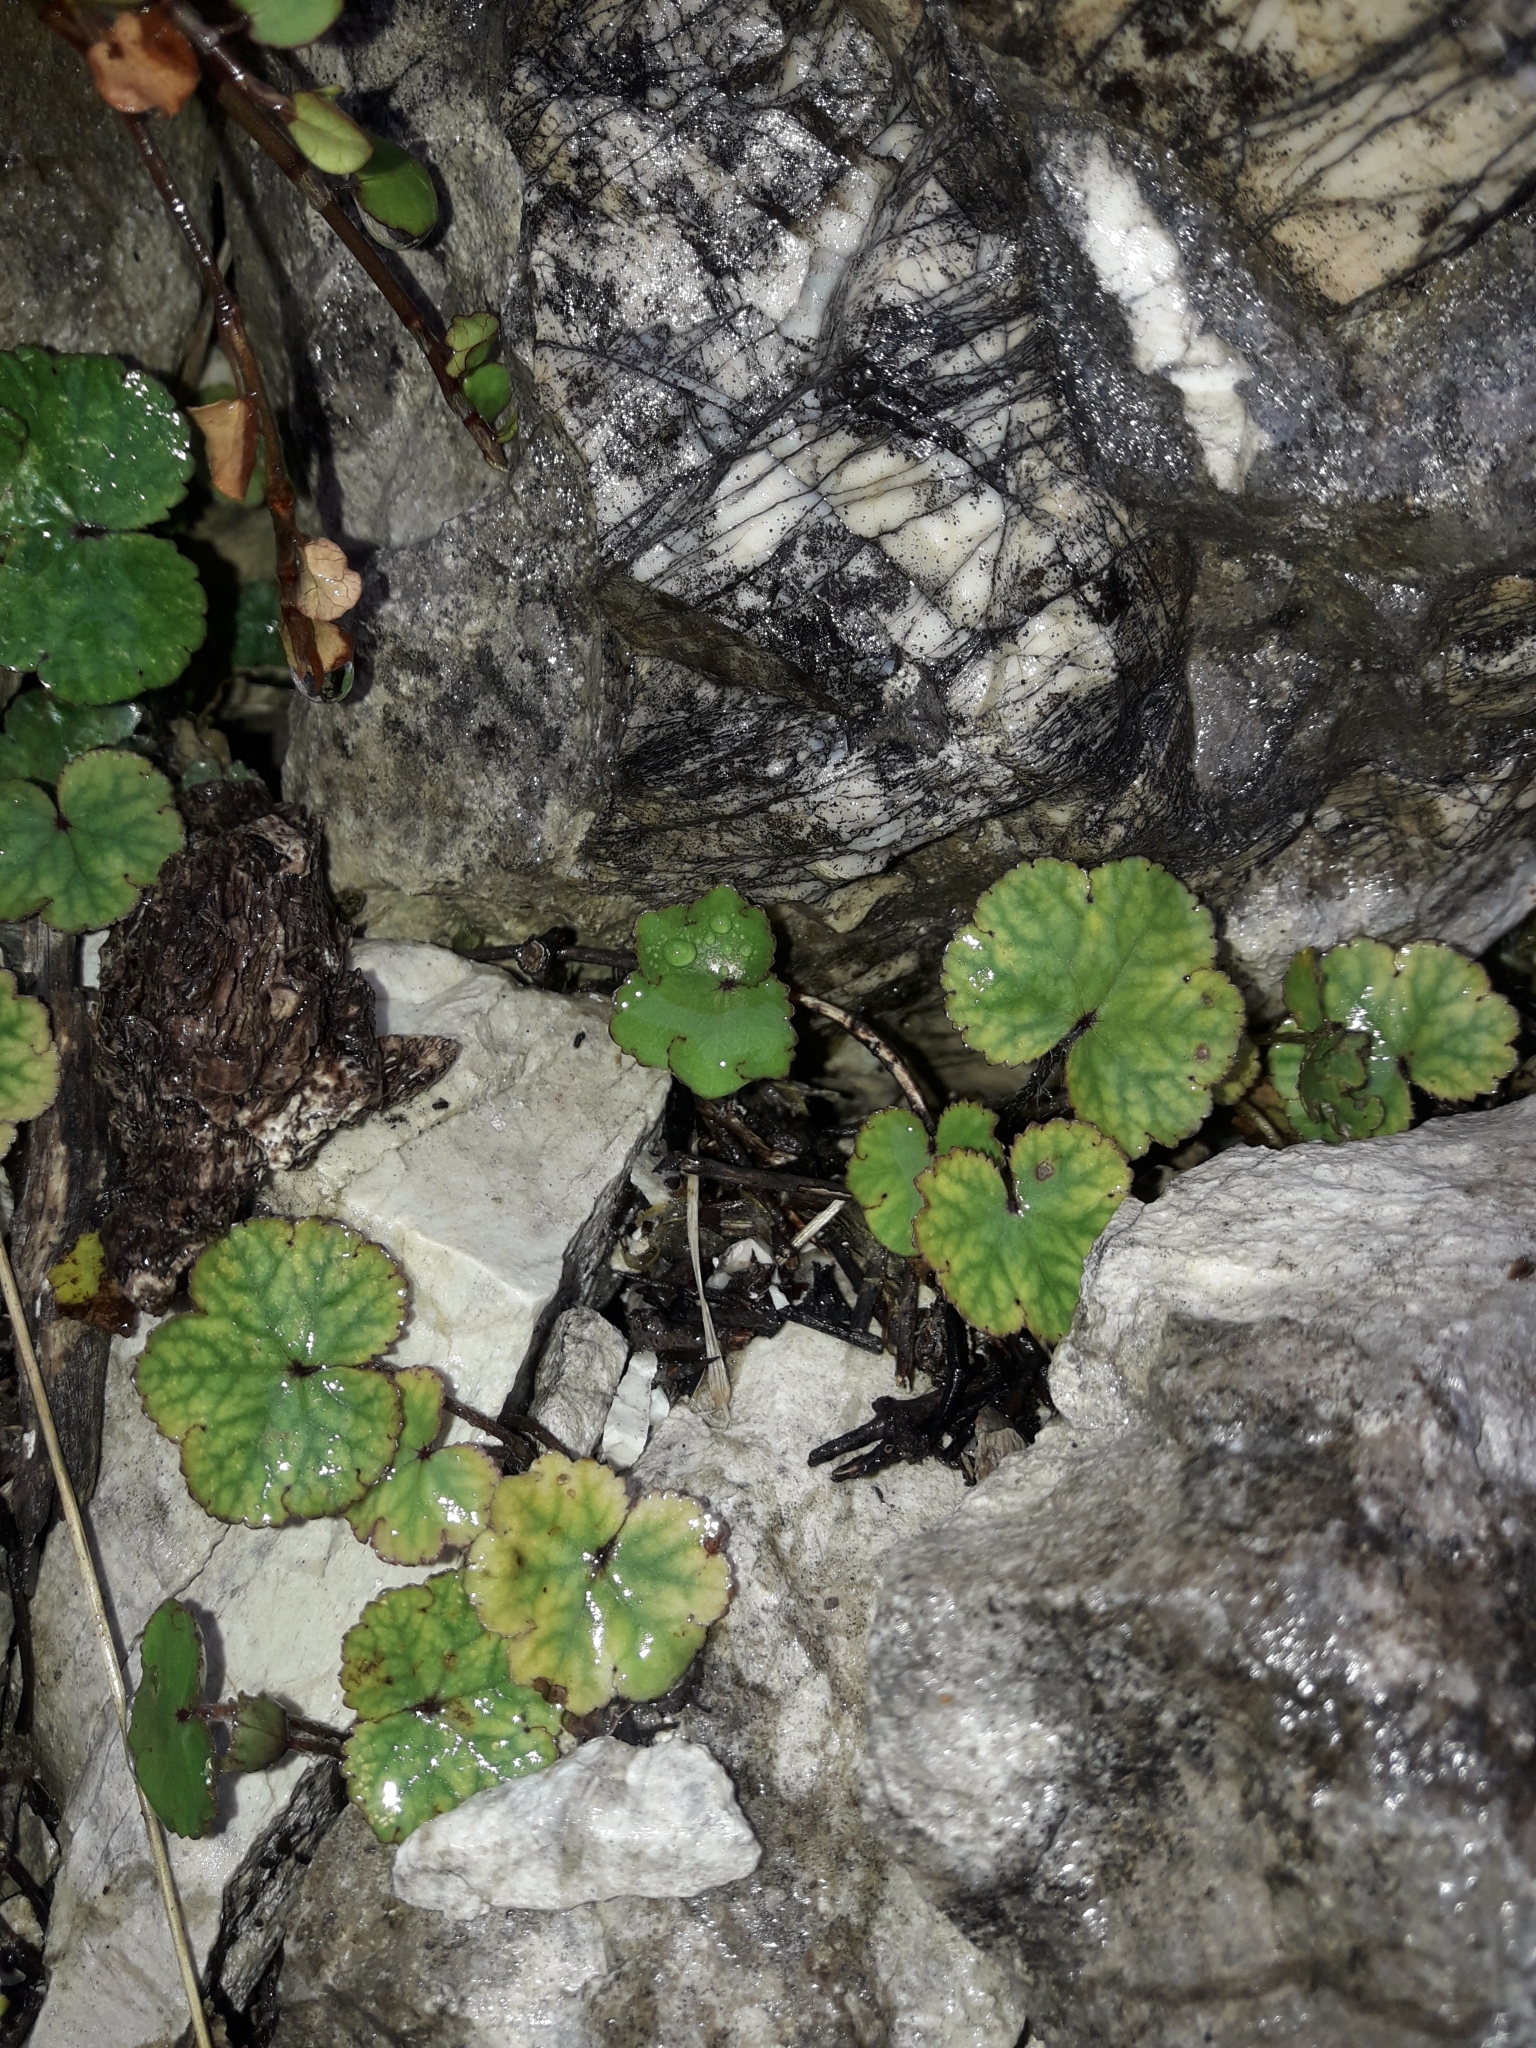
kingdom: Plantae
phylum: Tracheophyta
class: Magnoliopsida
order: Apiales
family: Araliaceae
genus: Hydrocotyle
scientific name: Hydrocotyle novae-zeelandiae
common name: New zealand pennywort
